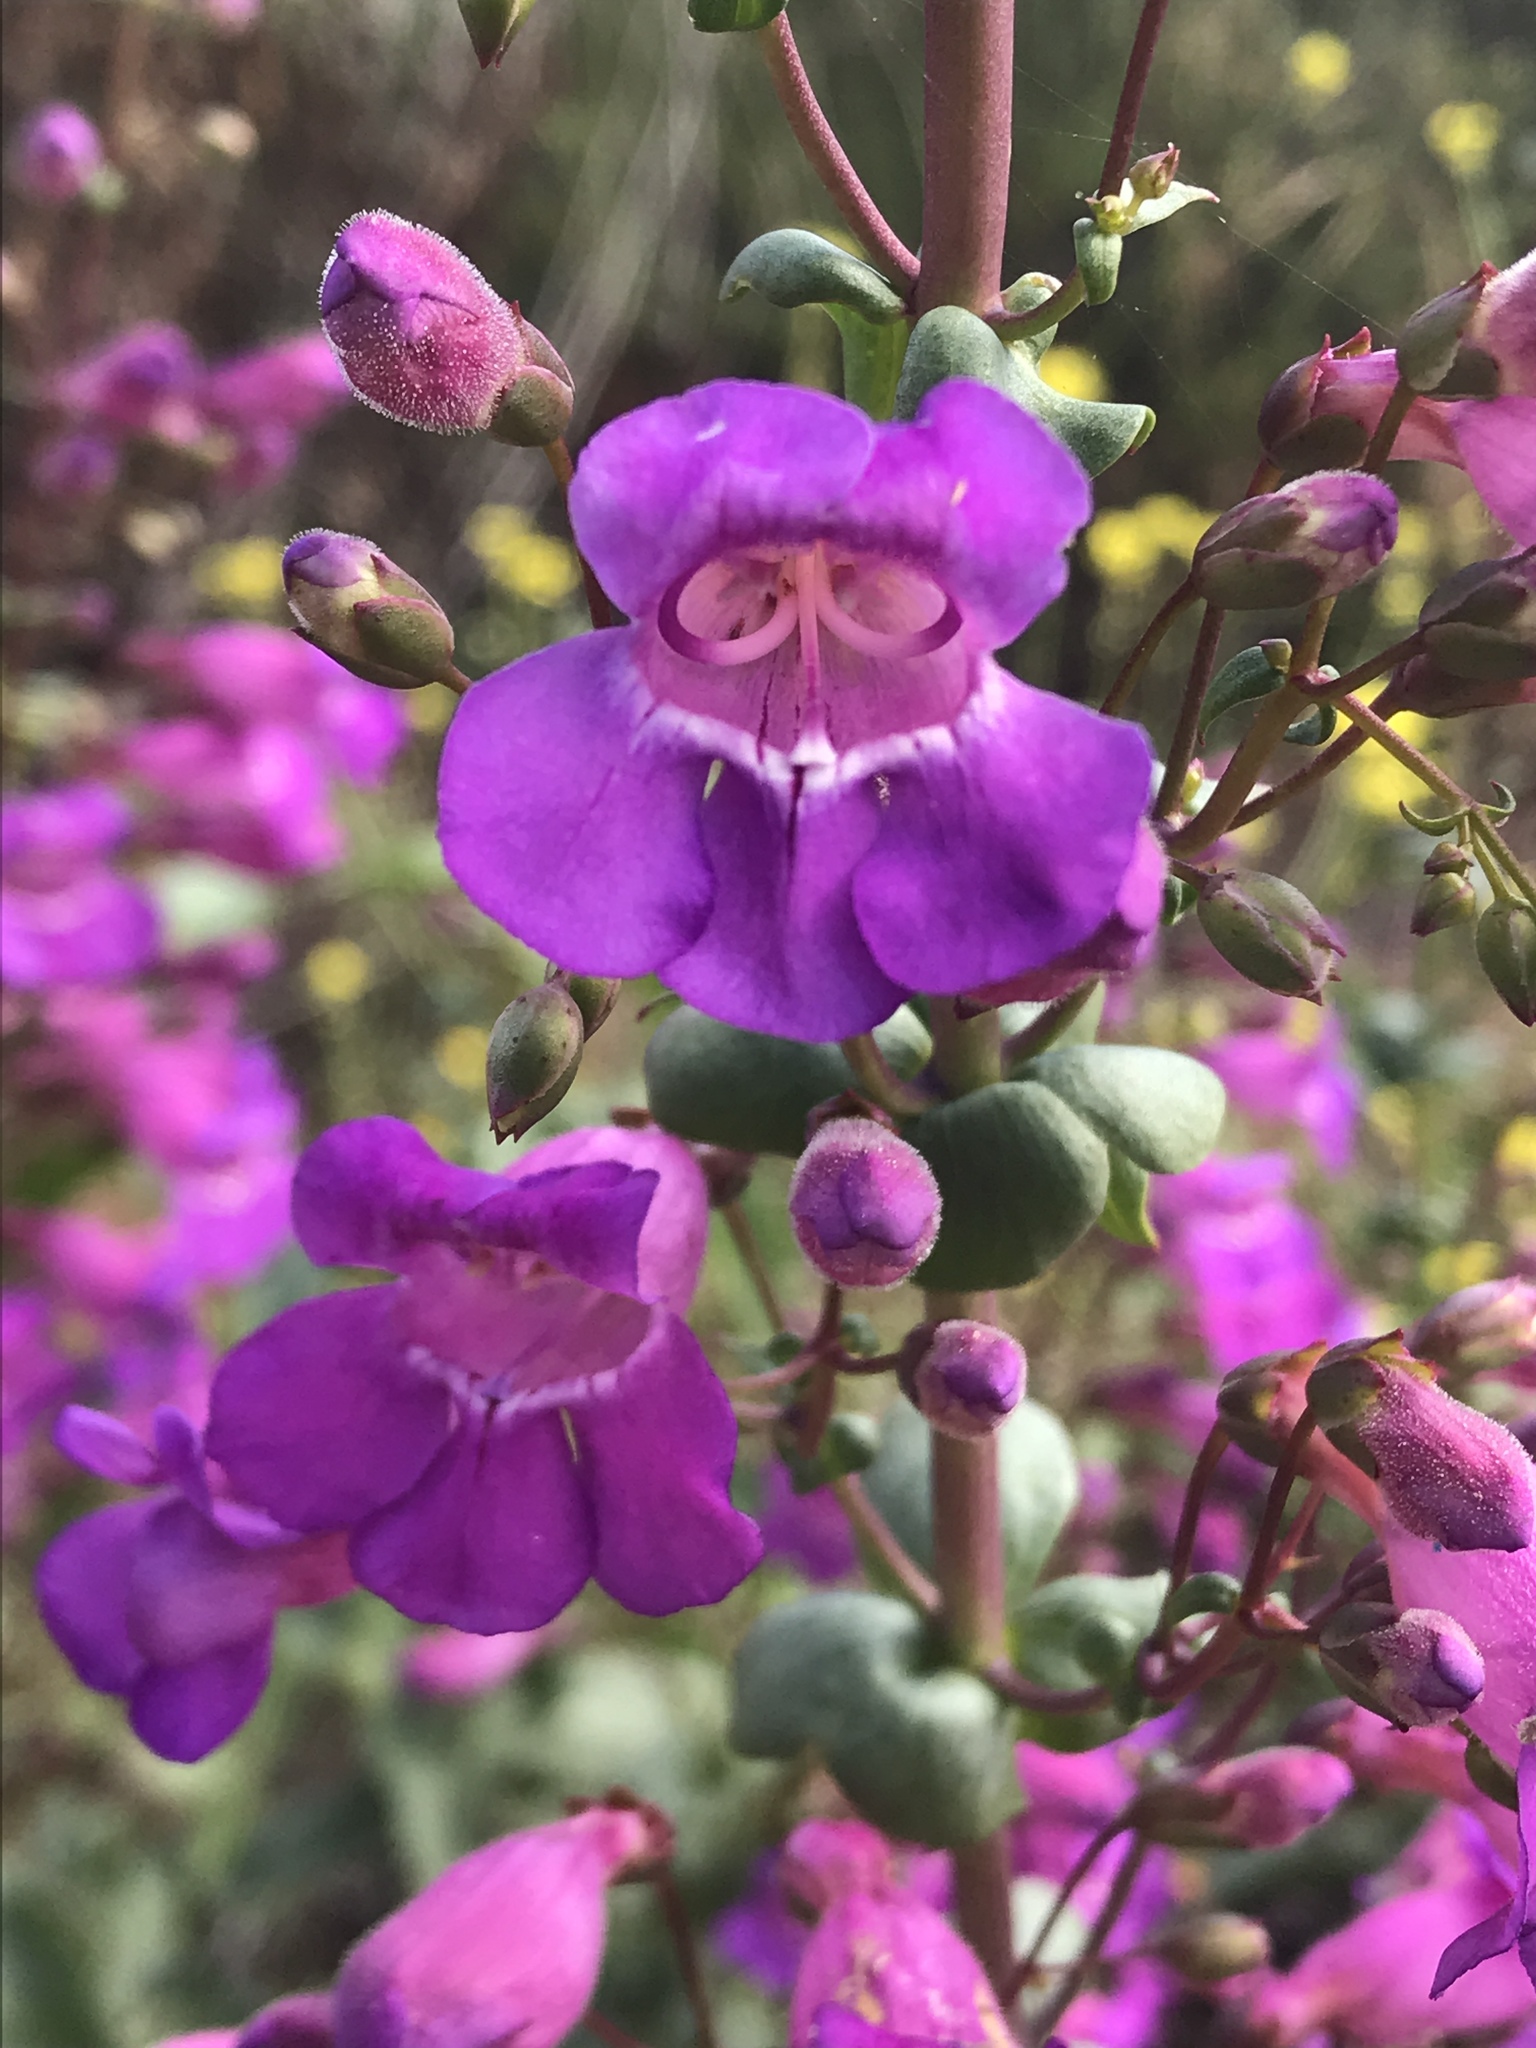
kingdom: Plantae
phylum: Tracheophyta
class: Magnoliopsida
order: Lamiales
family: Plantaginaceae
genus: Penstemon
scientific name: Penstemon spectabilis
